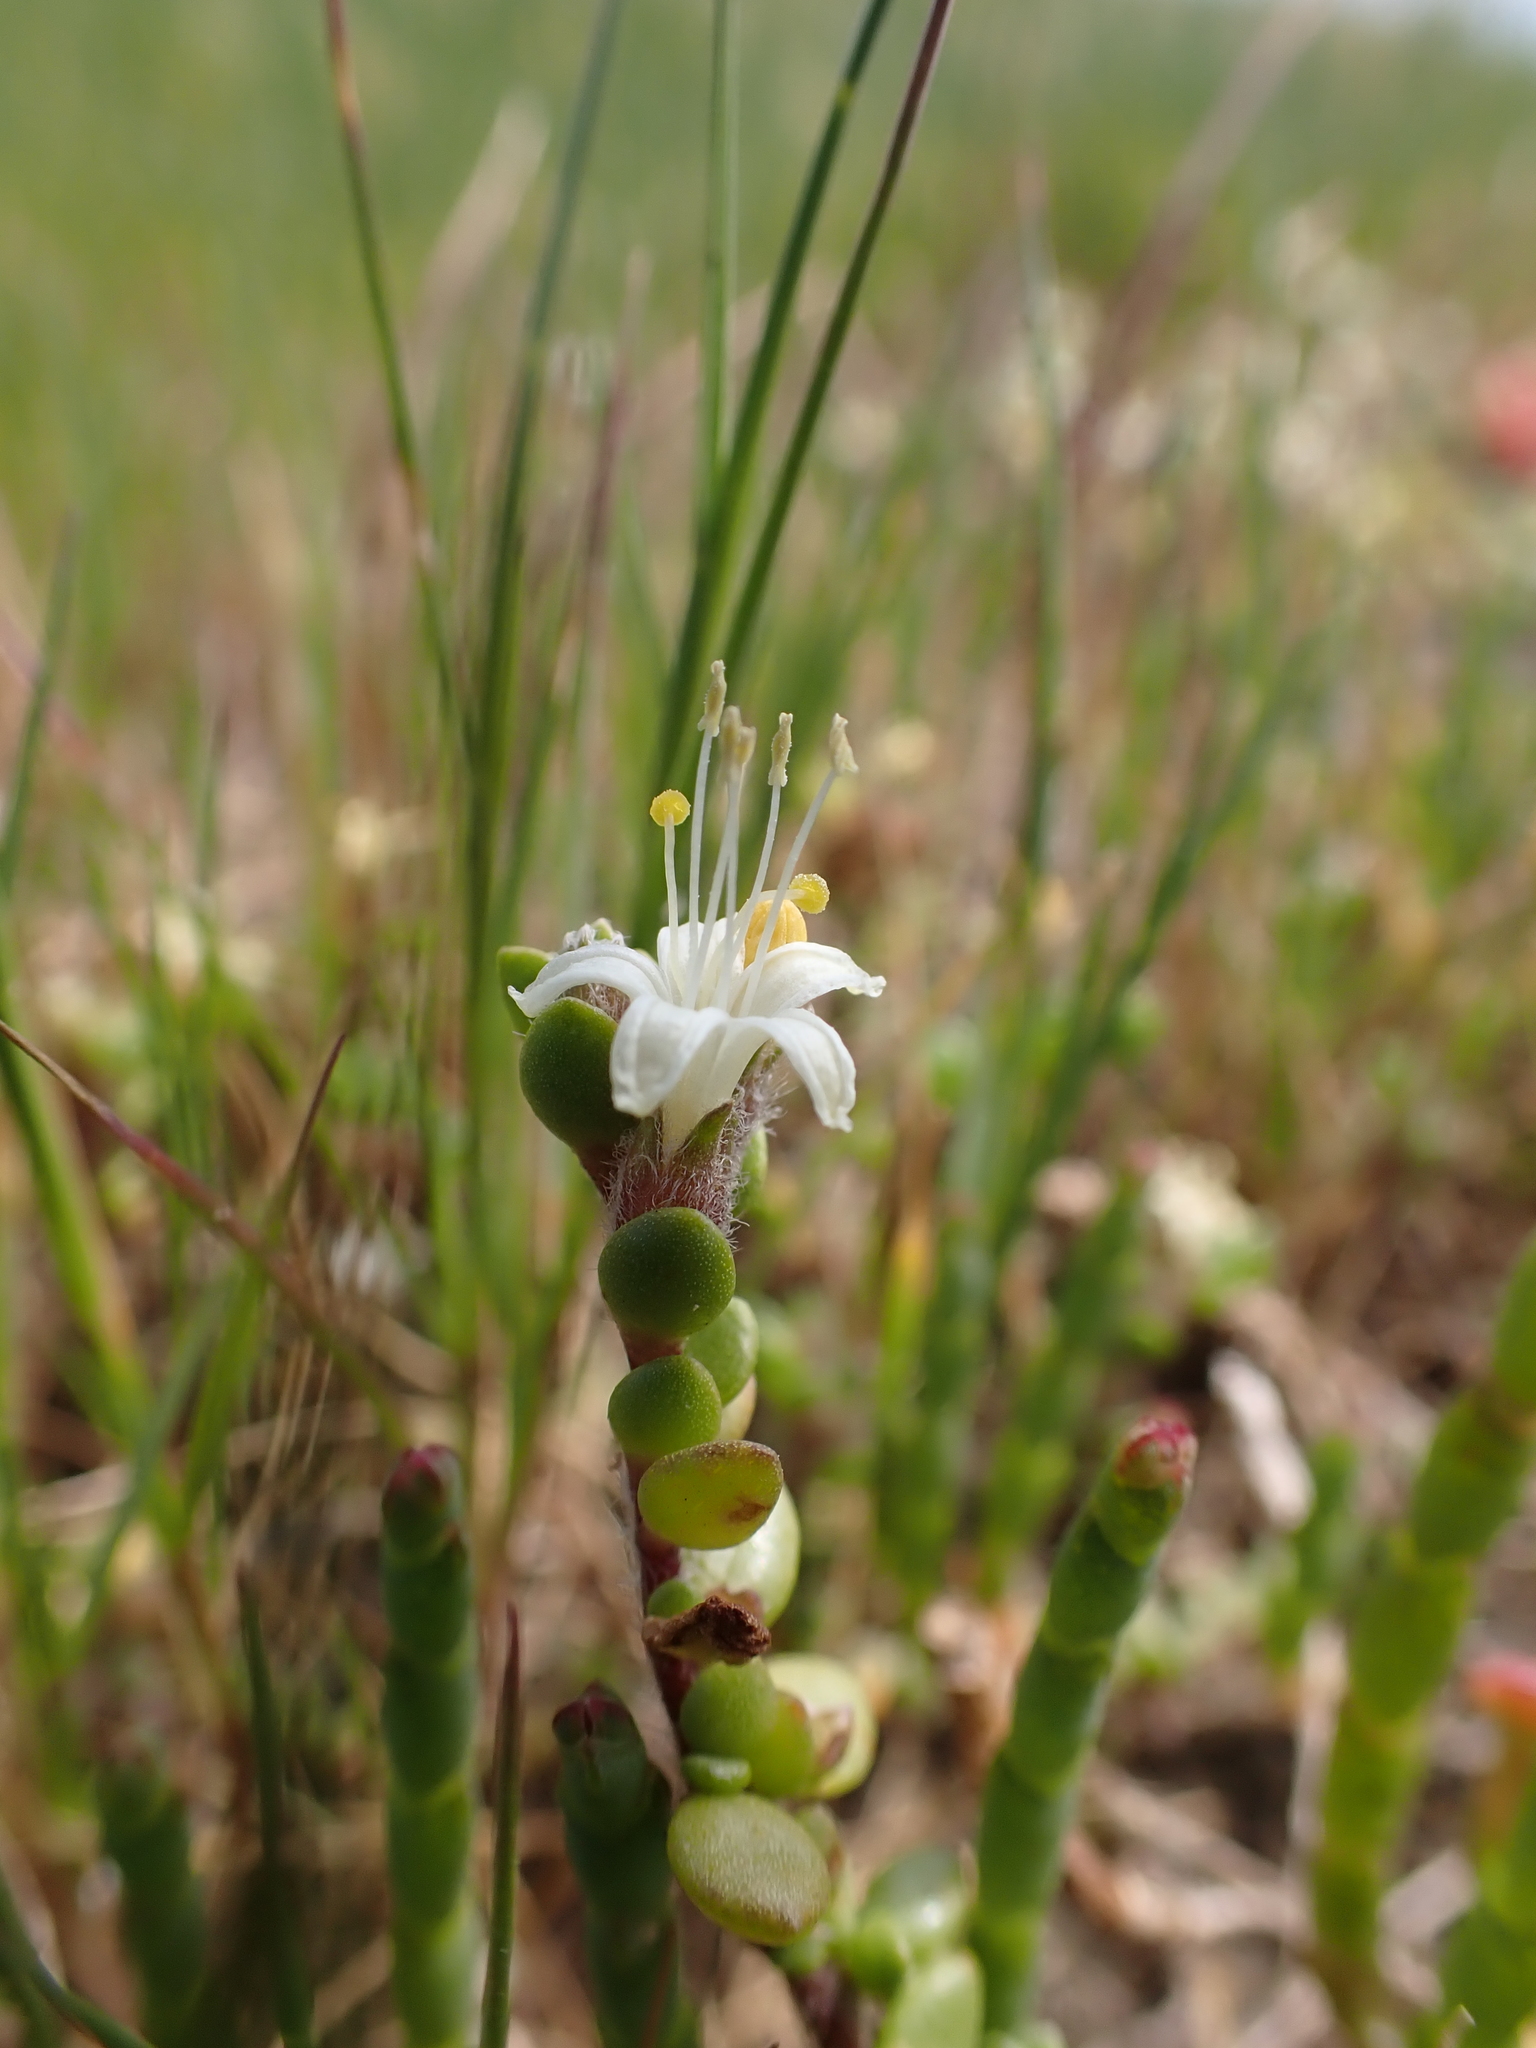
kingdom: Plantae
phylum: Tracheophyta
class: Magnoliopsida
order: Solanales
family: Convolvulaceae
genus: Wilsonia
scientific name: Wilsonia rotundifolia
